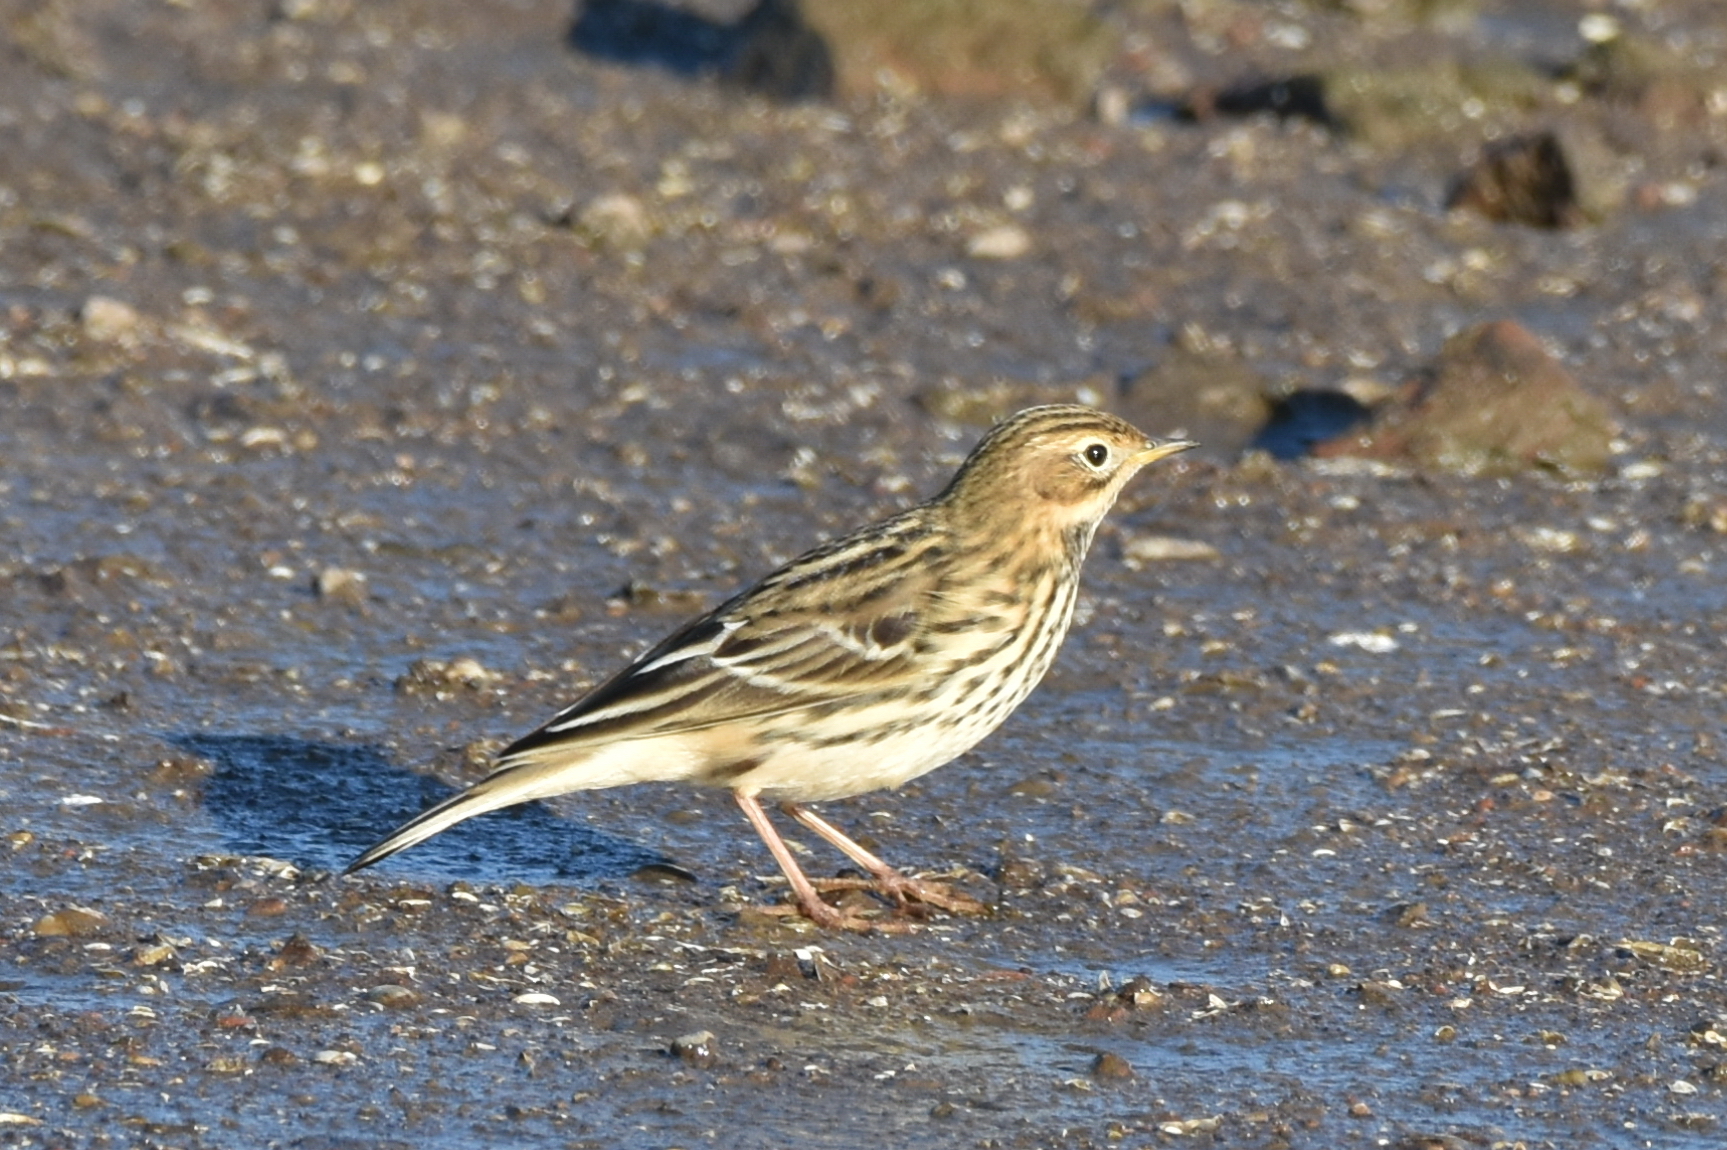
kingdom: Animalia
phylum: Chordata
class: Aves
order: Passeriformes
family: Motacillidae
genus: Anthus
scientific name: Anthus cervinus
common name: Red-throated pipit
